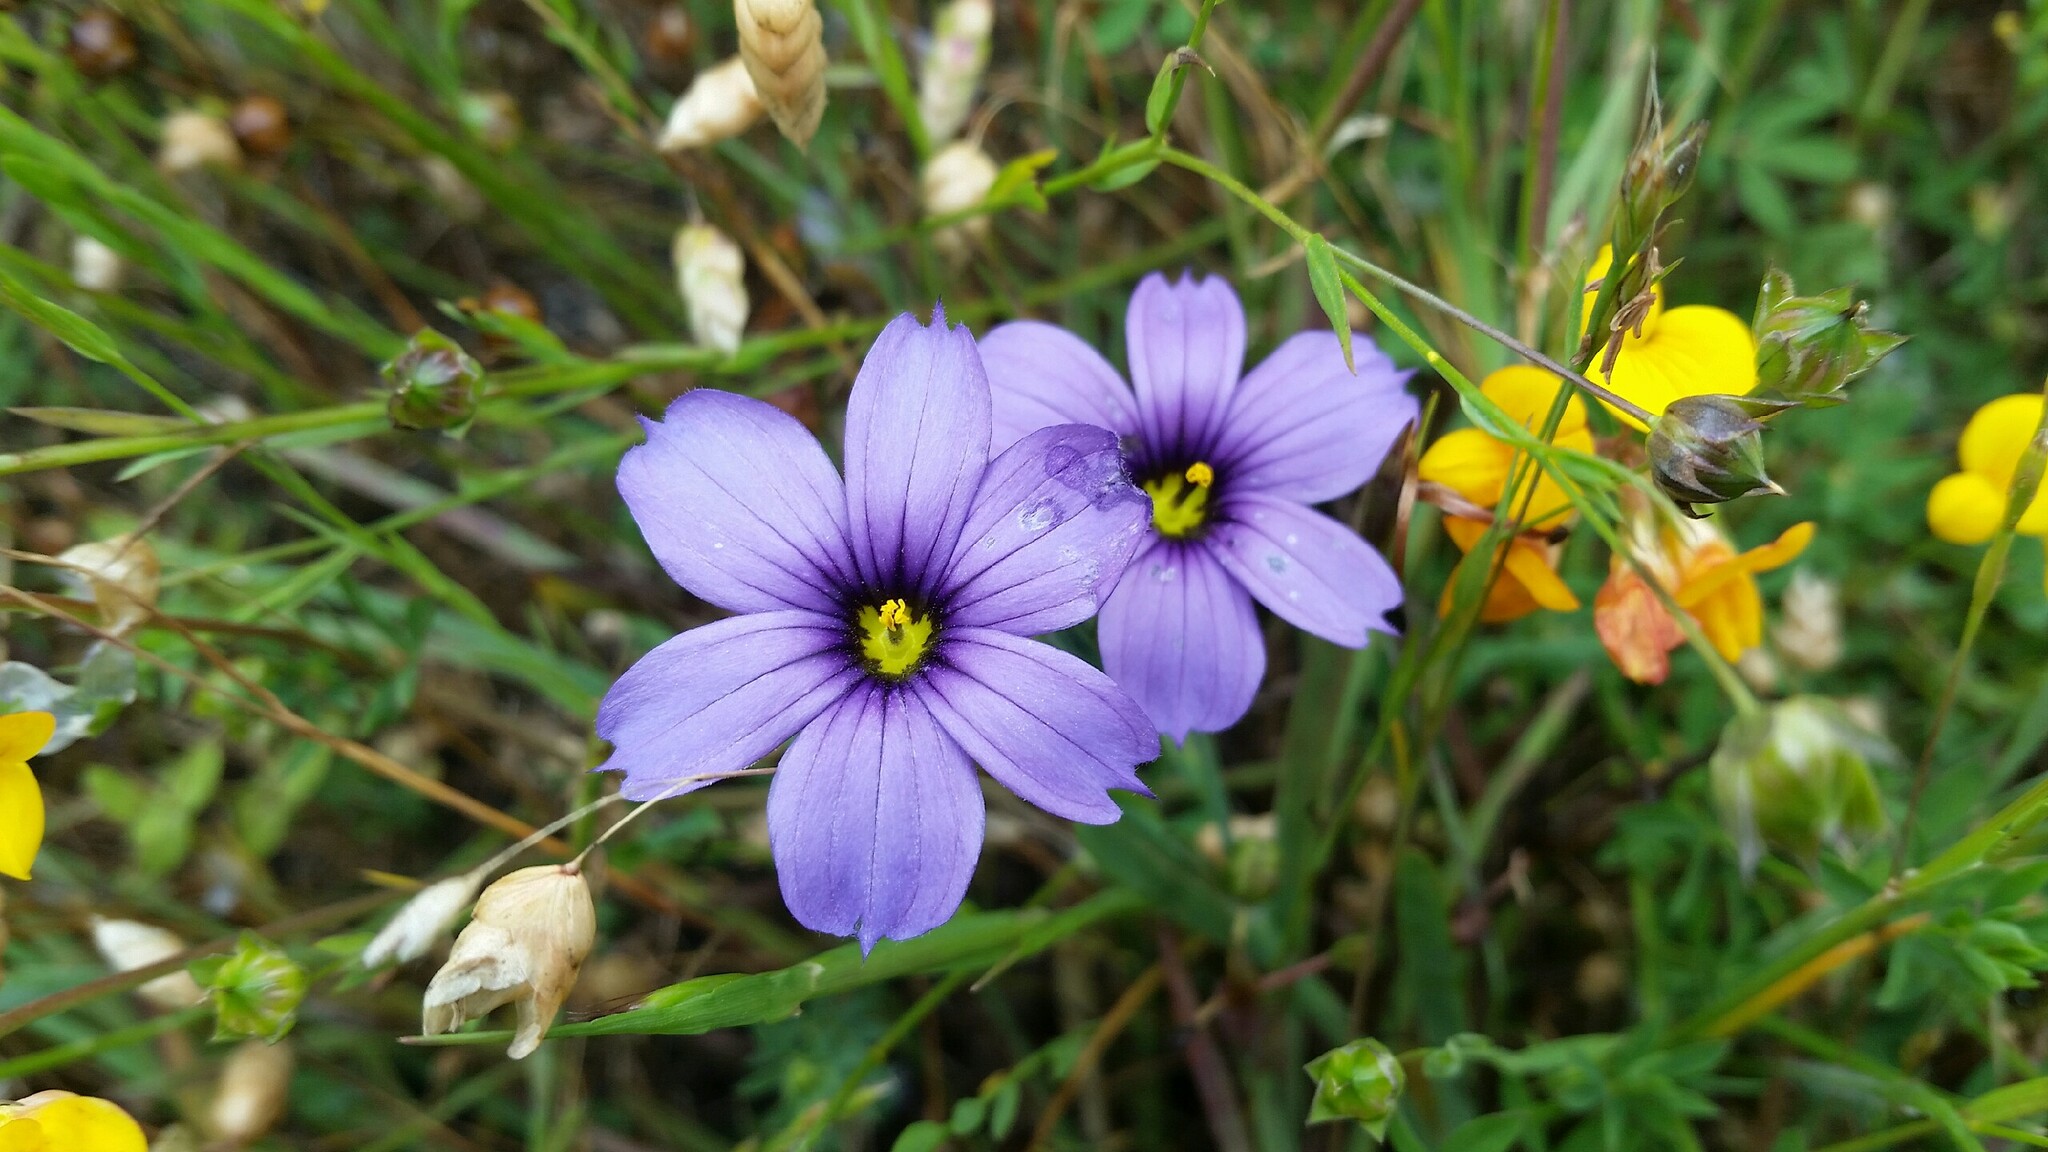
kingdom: Plantae
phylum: Tracheophyta
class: Liliopsida
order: Asparagales
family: Iridaceae
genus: Sisyrinchium
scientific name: Sisyrinchium bellum
